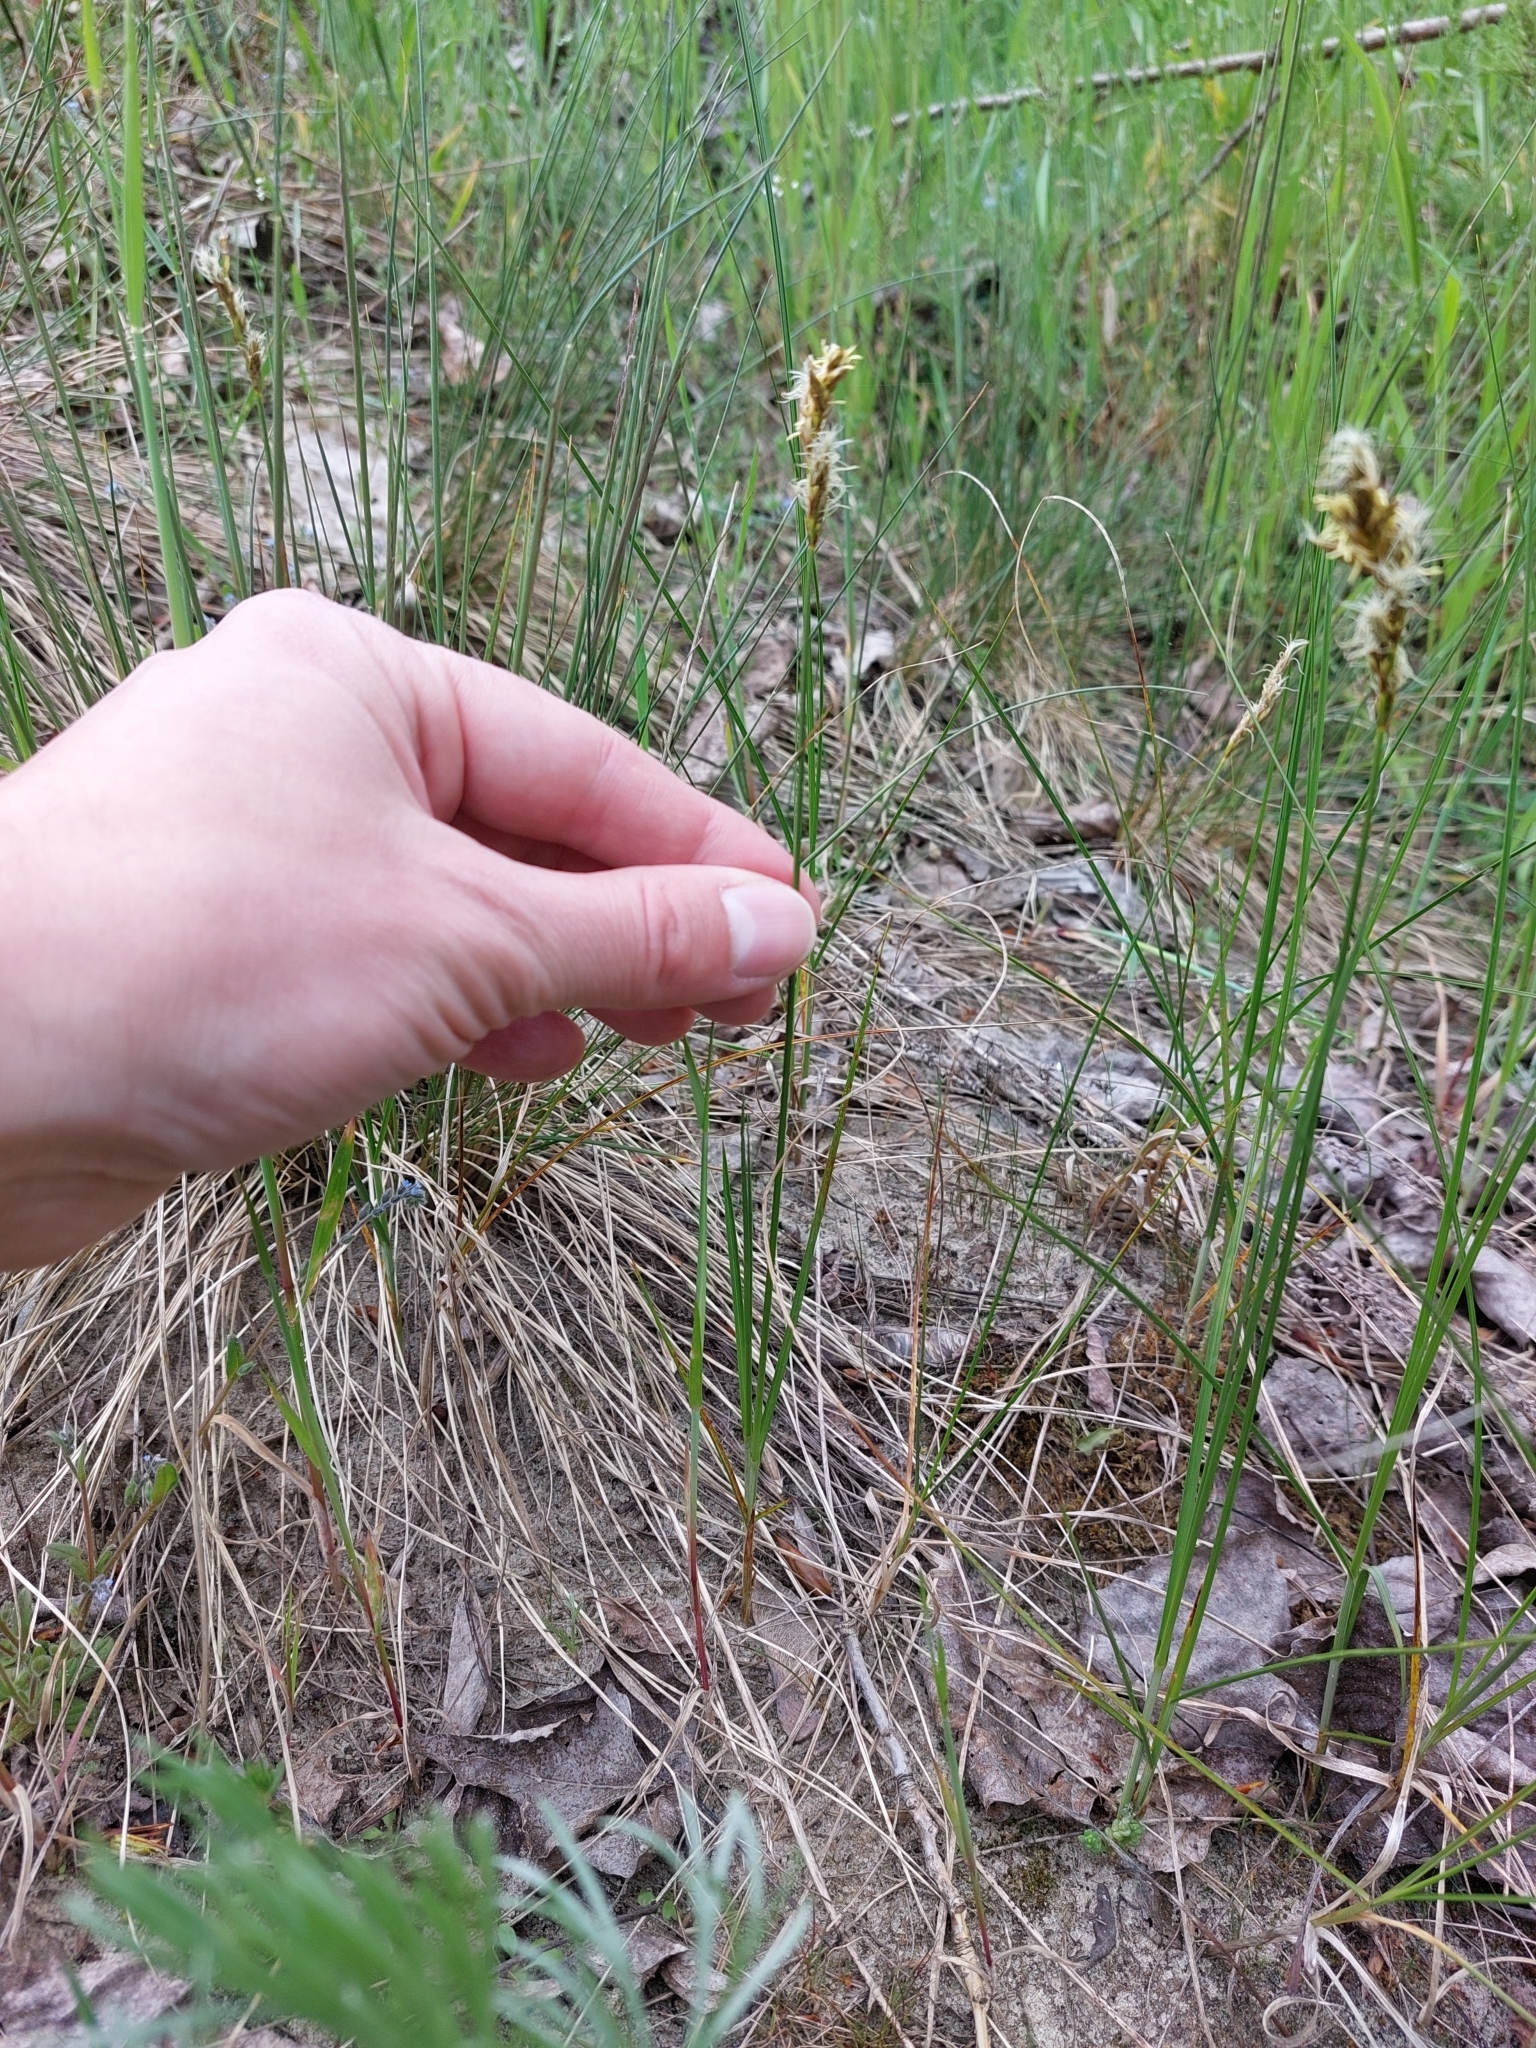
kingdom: Plantae
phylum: Tracheophyta
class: Liliopsida
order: Poales
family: Cyperaceae
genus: Carex
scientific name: Carex praecox
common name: Early sedge
